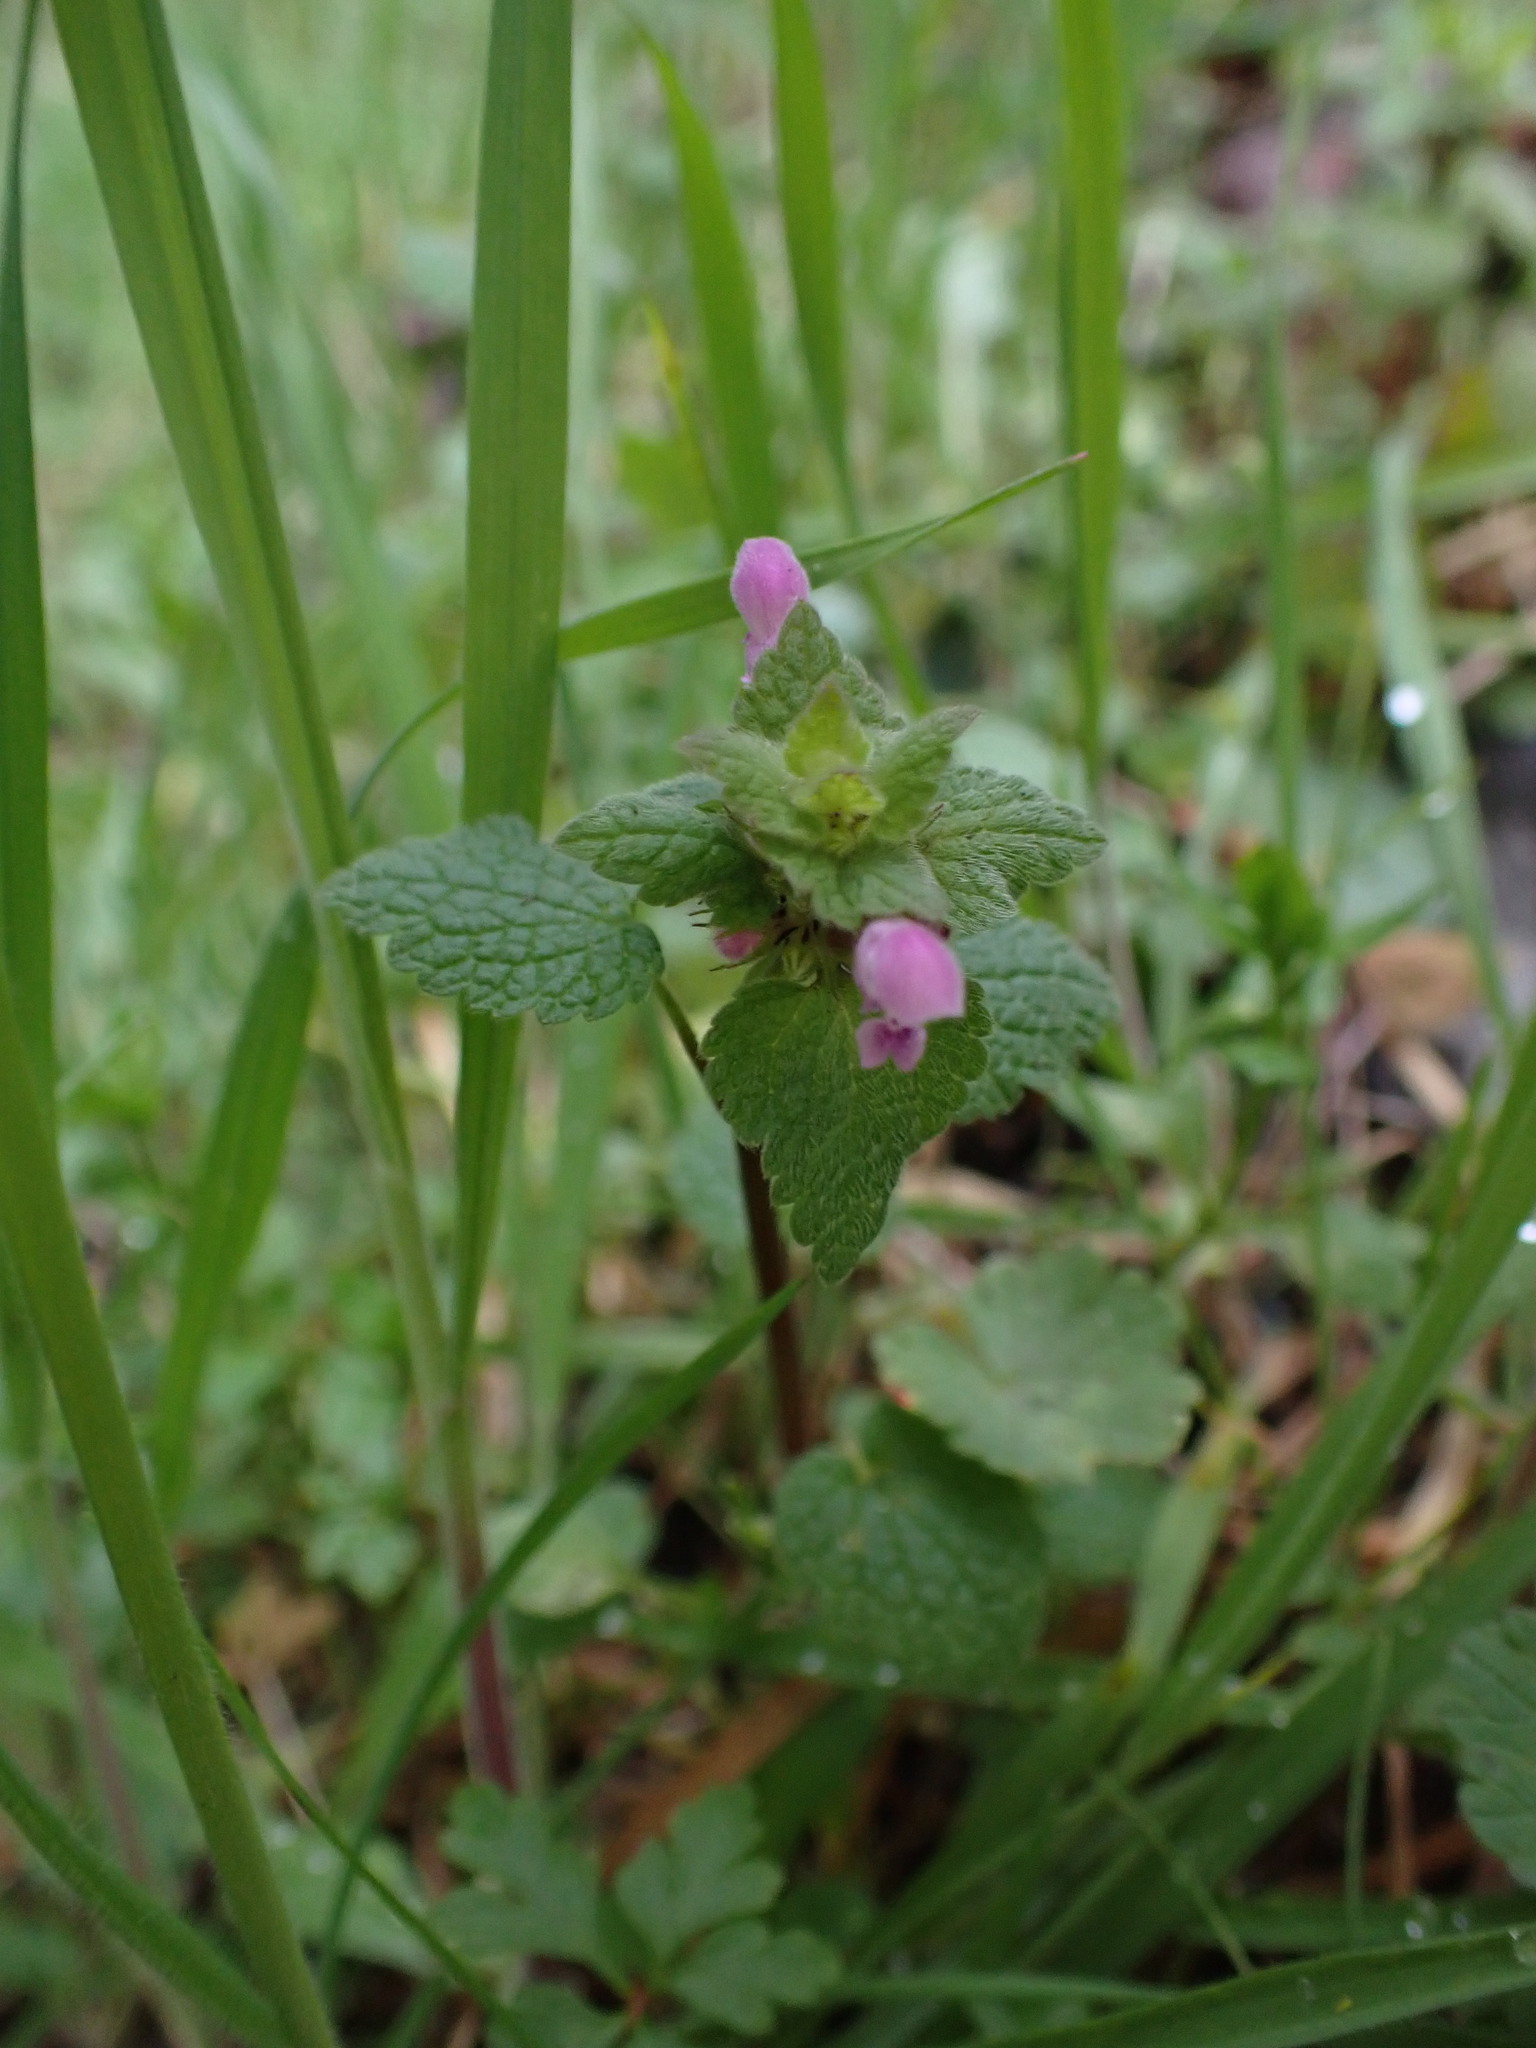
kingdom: Plantae
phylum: Tracheophyta
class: Magnoliopsida
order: Lamiales
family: Lamiaceae
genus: Lamium
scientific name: Lamium purpureum
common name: Red dead-nettle
